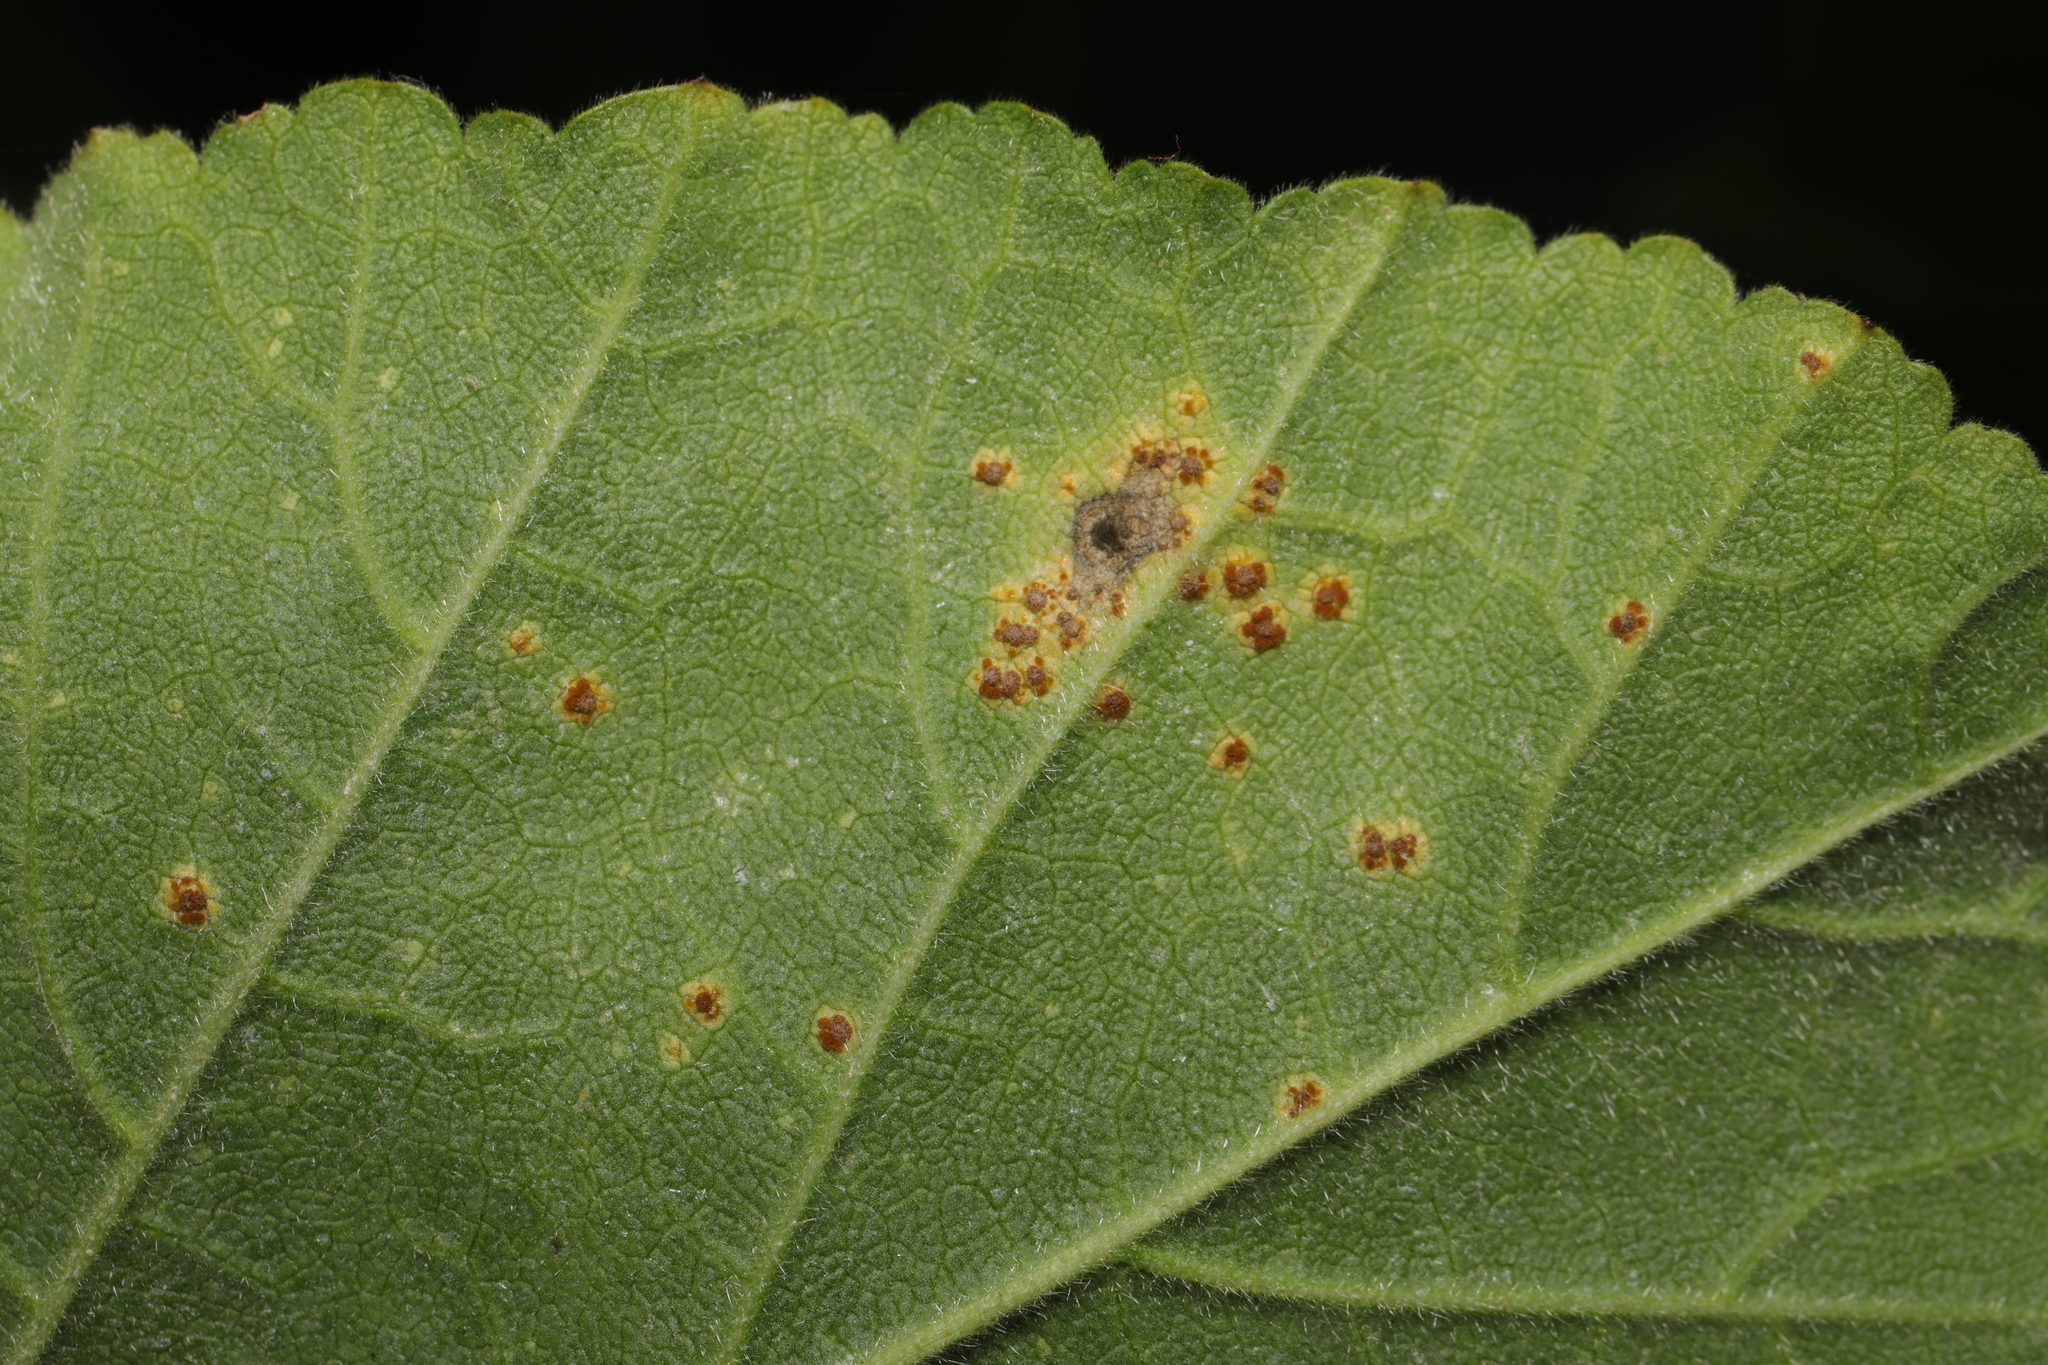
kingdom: Fungi
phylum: Basidiomycota
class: Pucciniomycetes
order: Pucciniales
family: Pucciniaceae
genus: Puccinia
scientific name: Puccinia malvacearum
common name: Hollyhock rust
